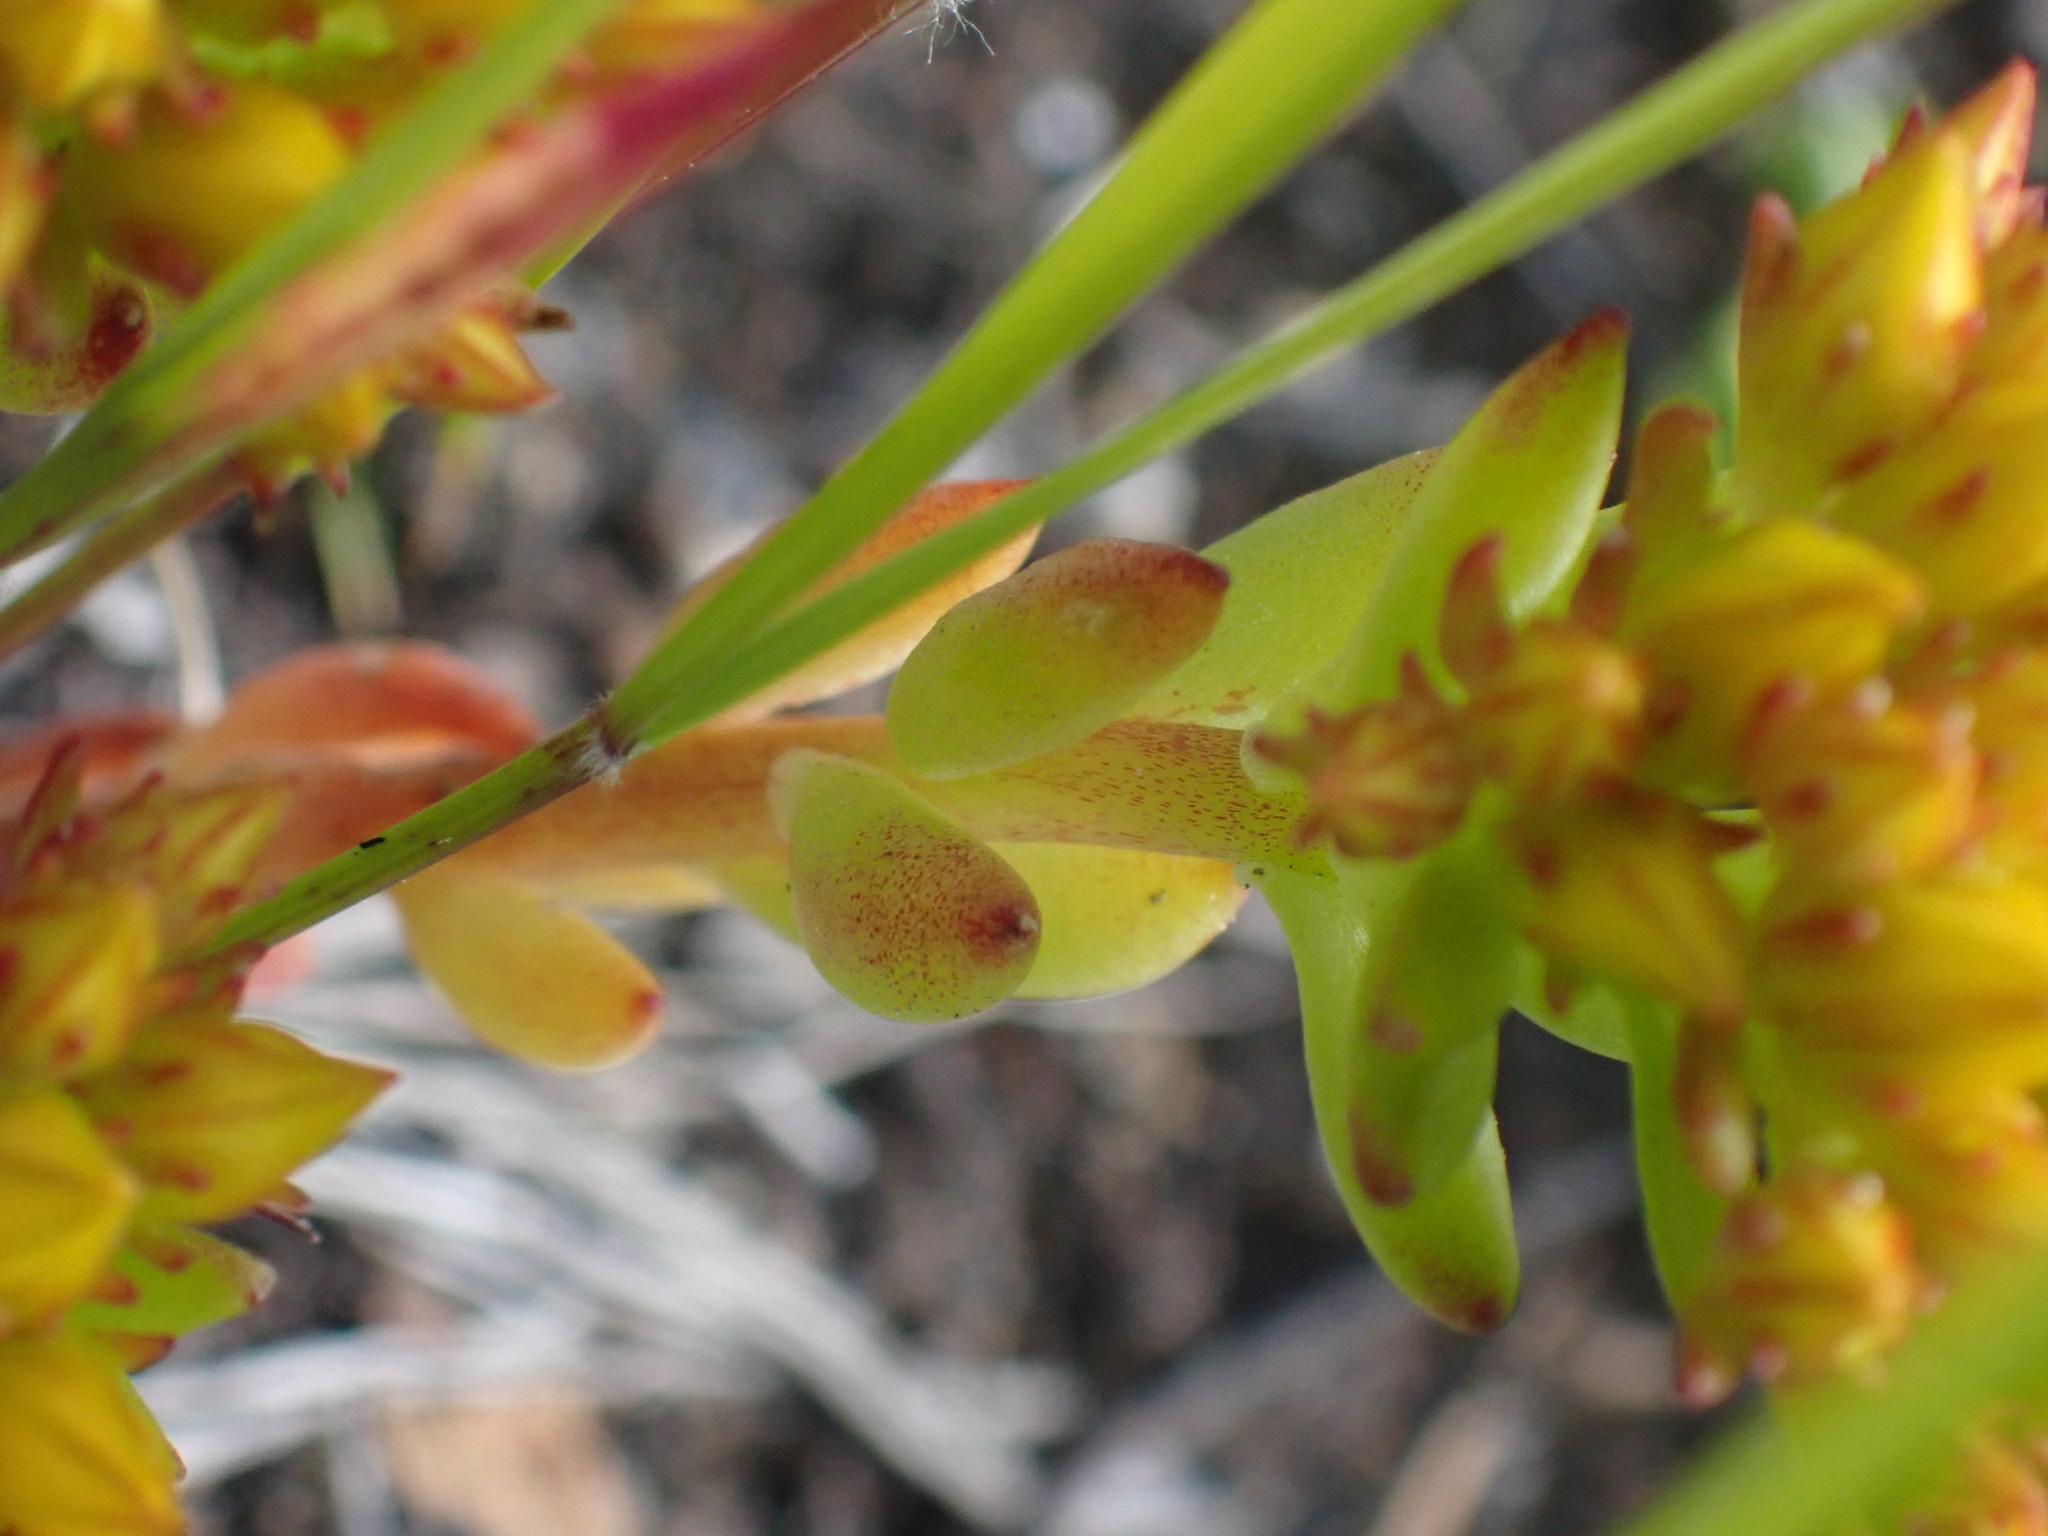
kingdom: Plantae
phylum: Tracheophyta
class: Magnoliopsida
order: Saxifragales
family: Crassulaceae
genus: Sedum
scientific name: Sedum lanceolatum
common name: Common stonecrop
